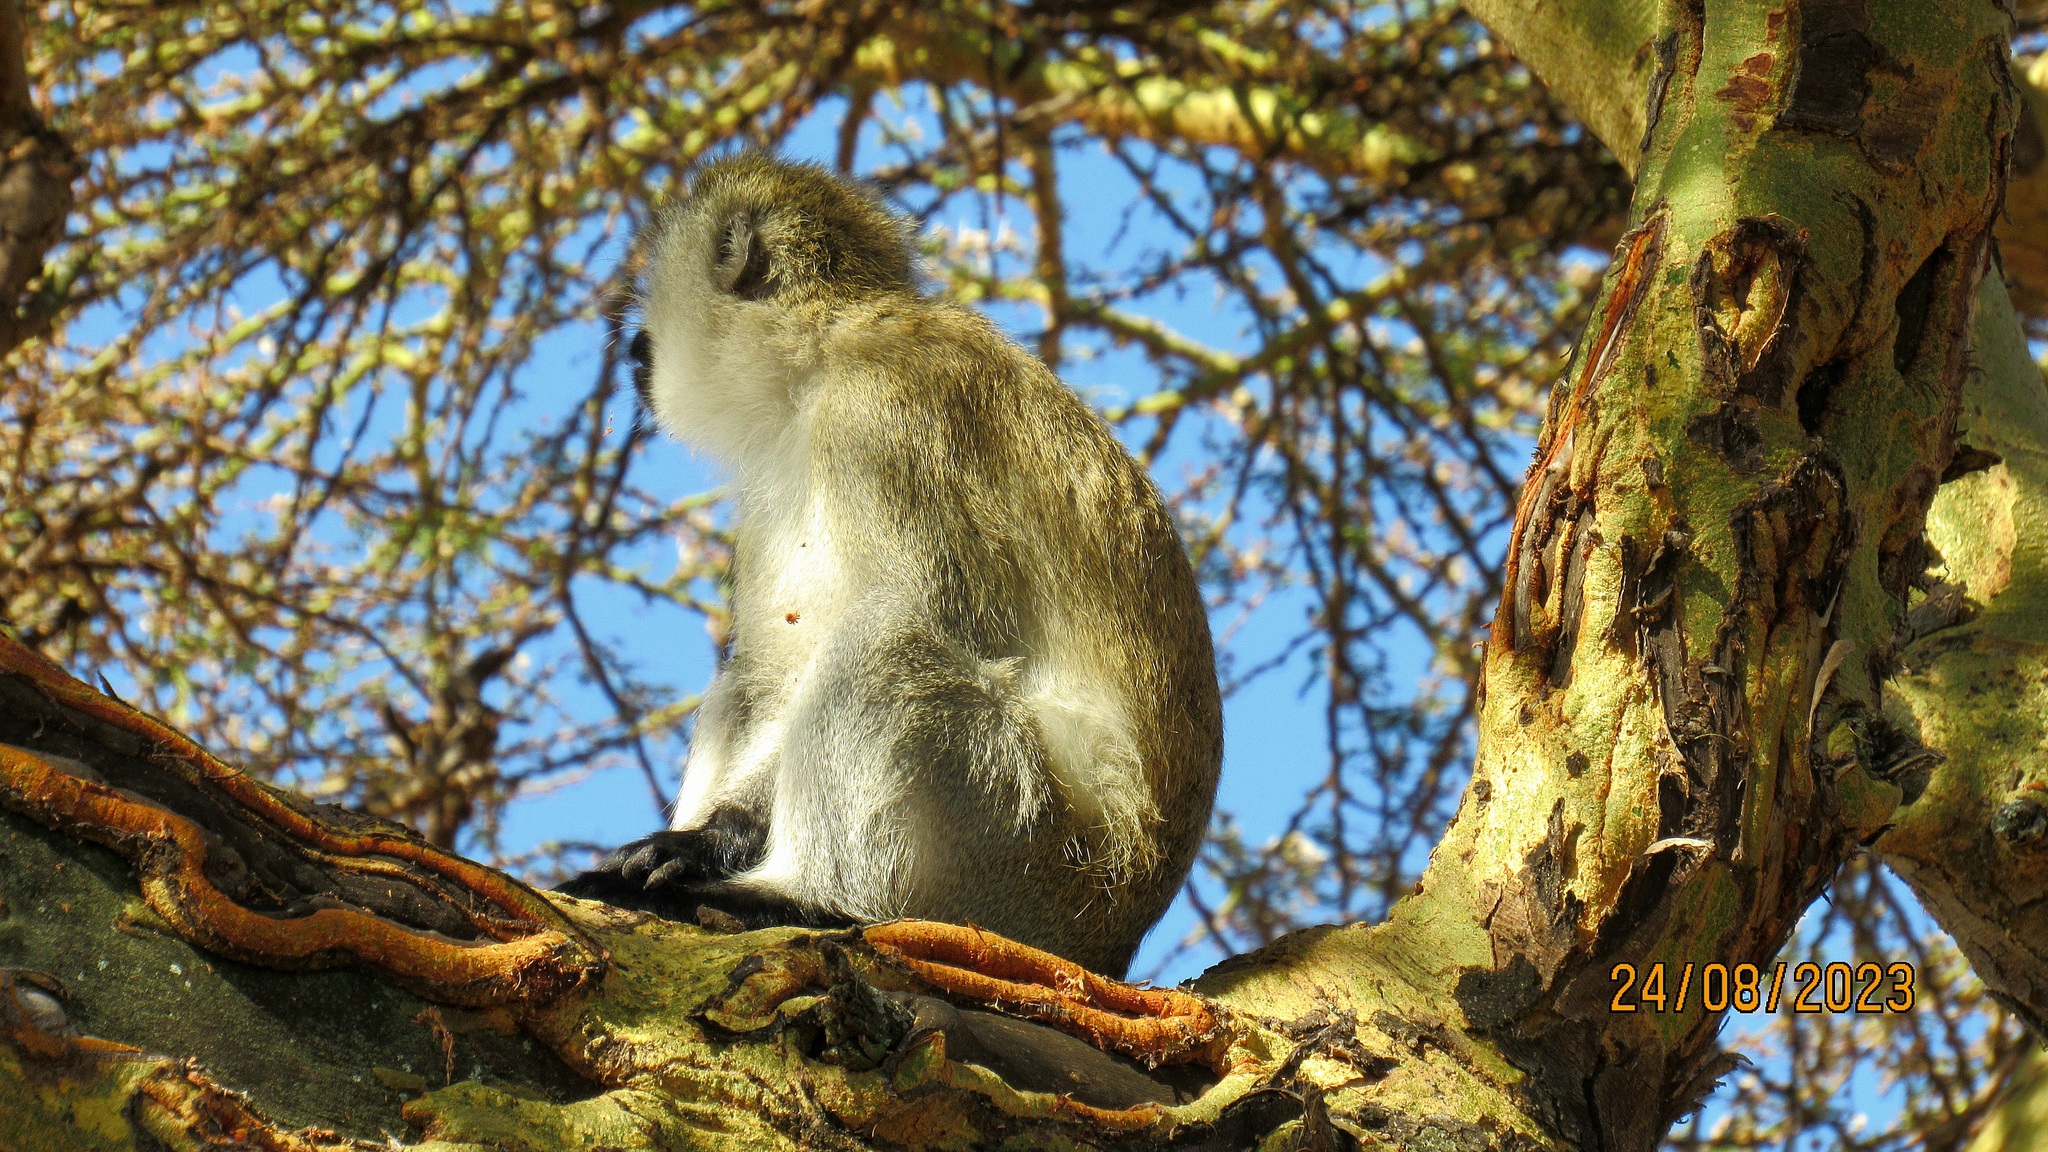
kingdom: Animalia
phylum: Chordata
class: Mammalia
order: Primates
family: Cercopithecidae
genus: Chlorocebus
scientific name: Chlorocebus pygerythrus
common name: Vervet monkey
